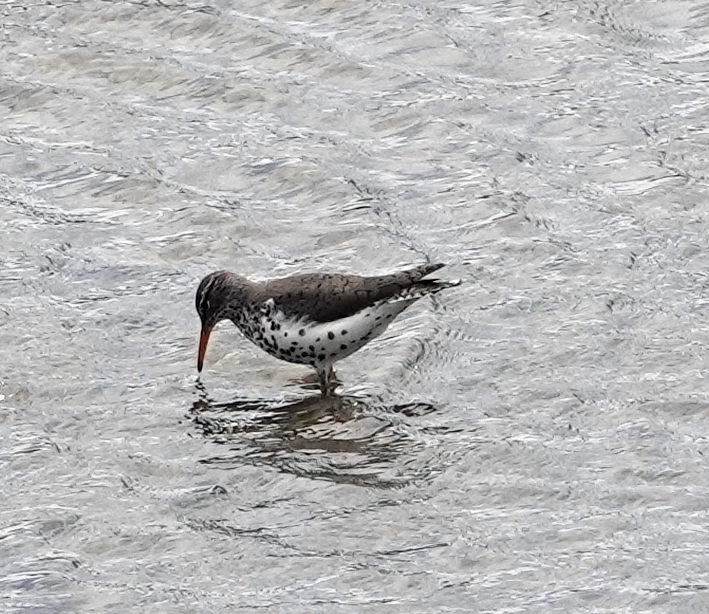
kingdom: Animalia
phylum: Chordata
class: Aves
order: Charadriiformes
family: Scolopacidae
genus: Actitis
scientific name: Actitis macularius
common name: Spotted sandpiper
